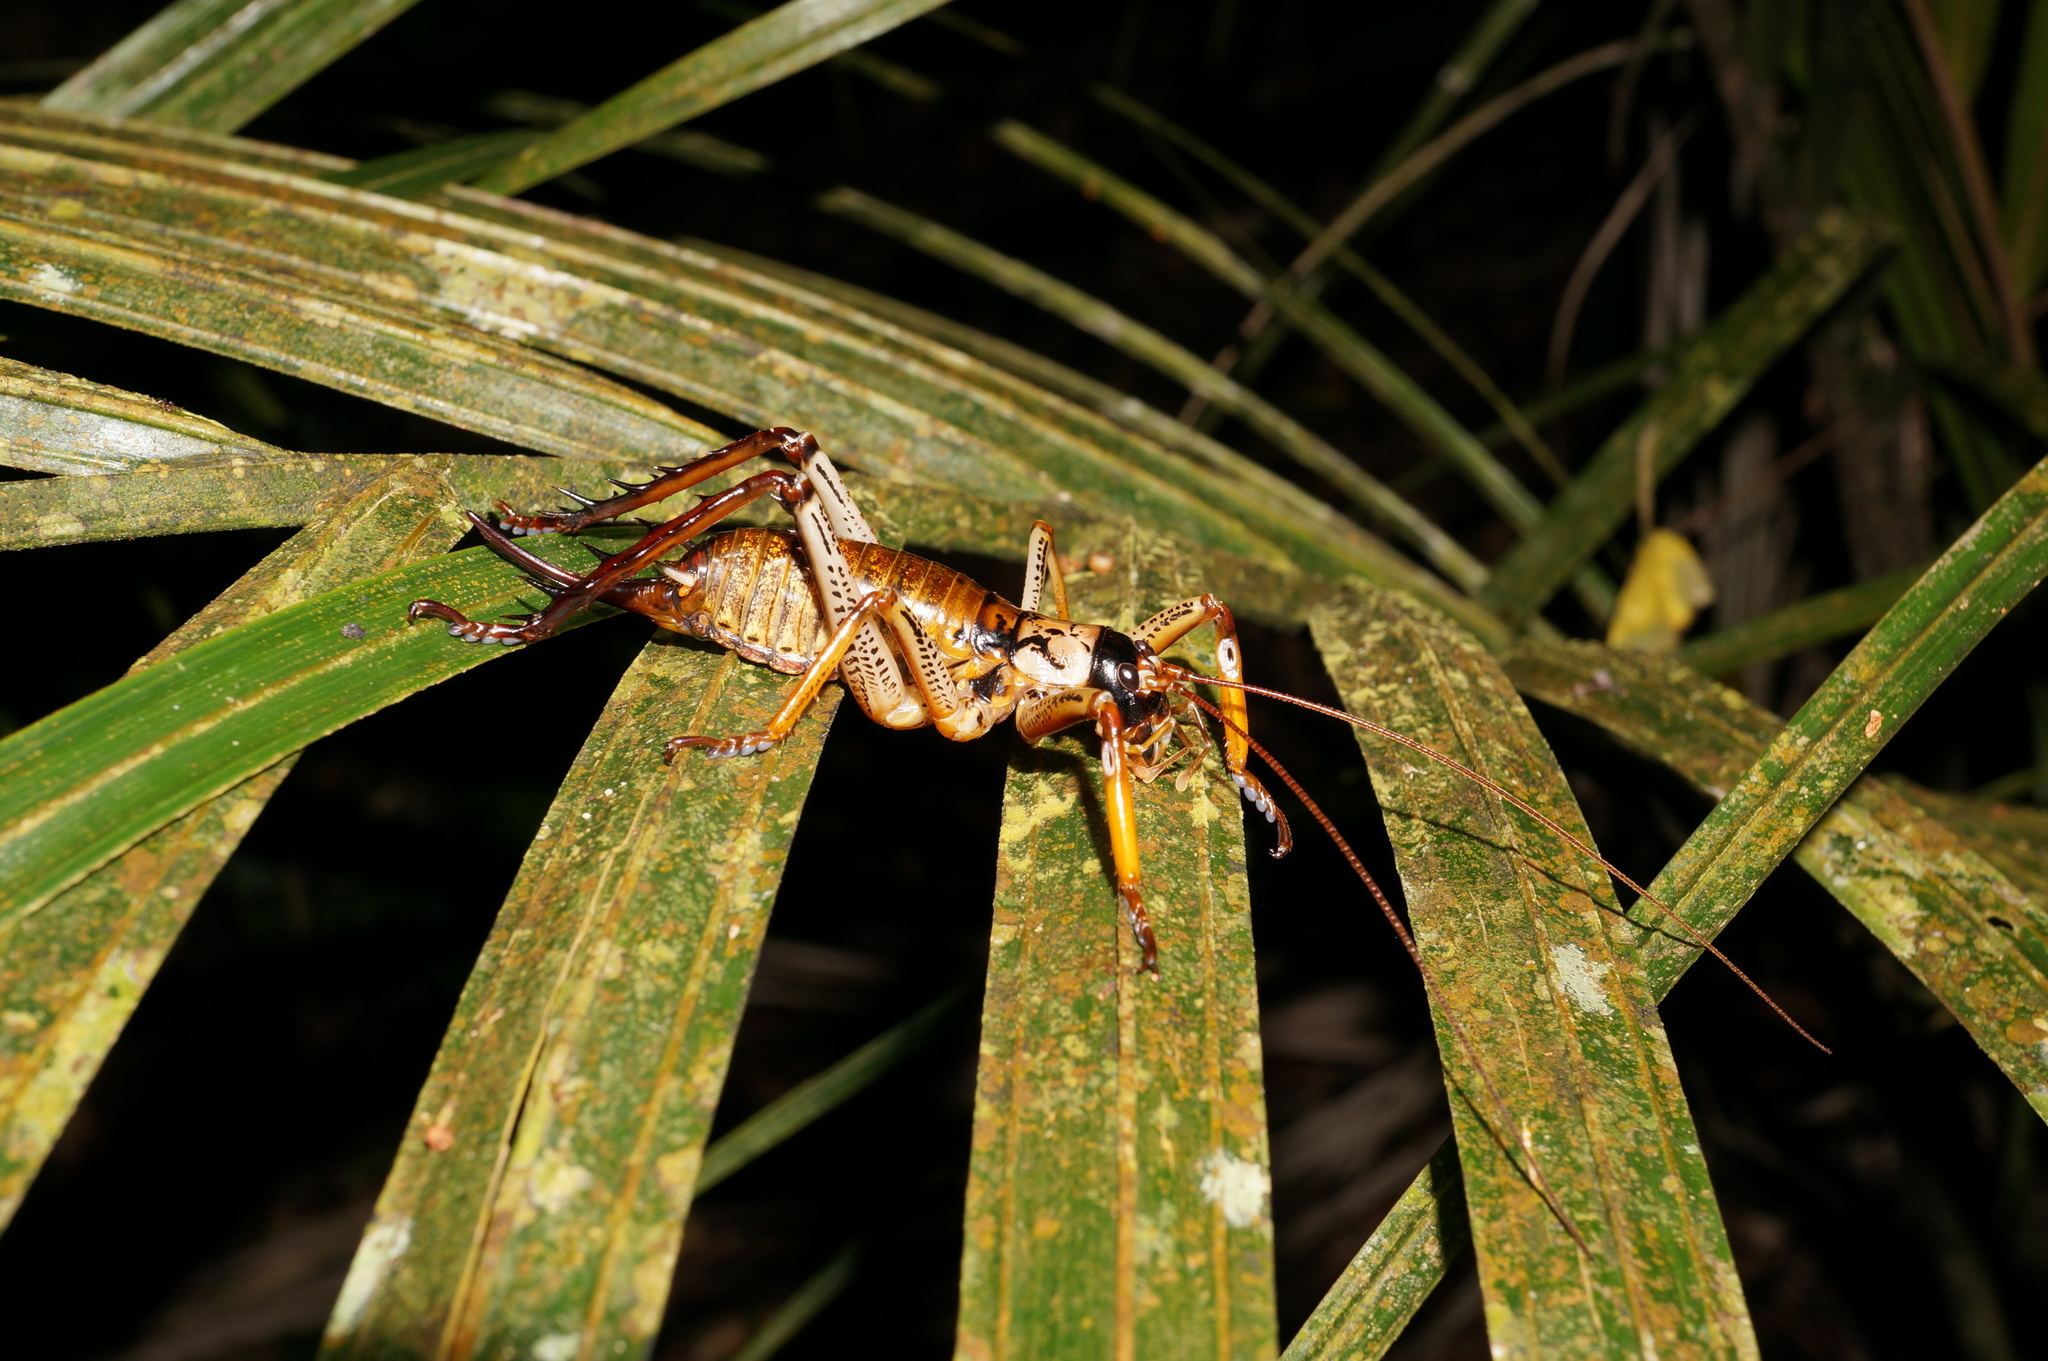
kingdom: Animalia
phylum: Arthropoda
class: Insecta
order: Orthoptera
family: Anostostomatidae
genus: Hemideina
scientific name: Hemideina thoracica
